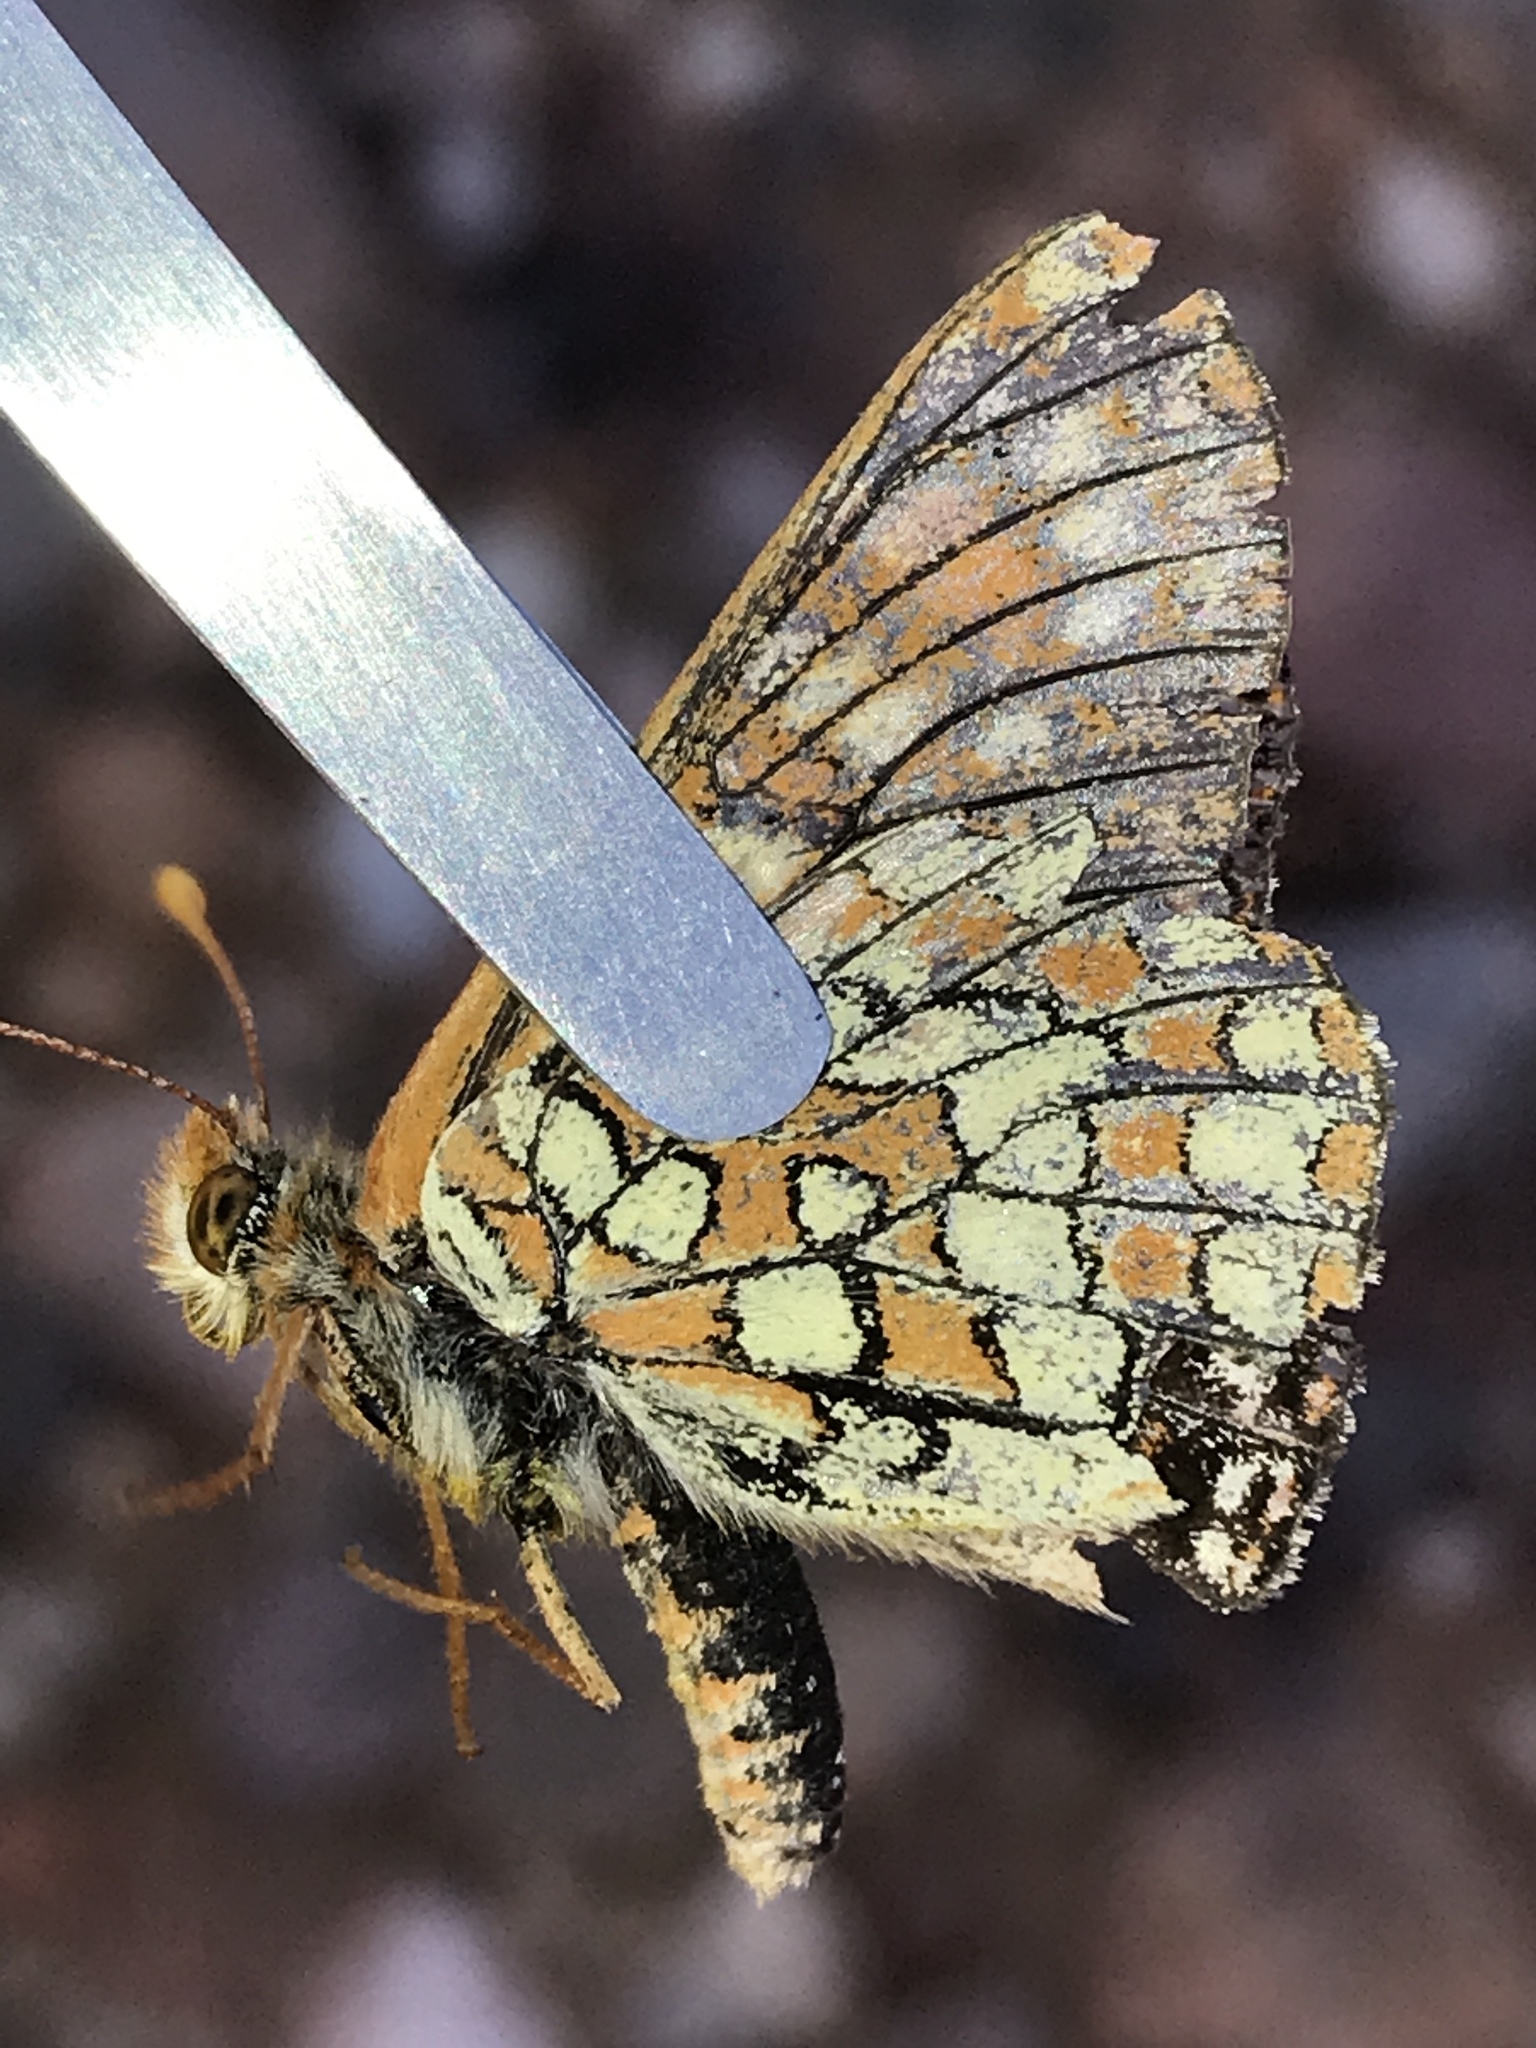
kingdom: Animalia
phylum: Arthropoda
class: Insecta
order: Lepidoptera
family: Nymphalidae
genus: Occidryas
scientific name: Occidryas anicia
